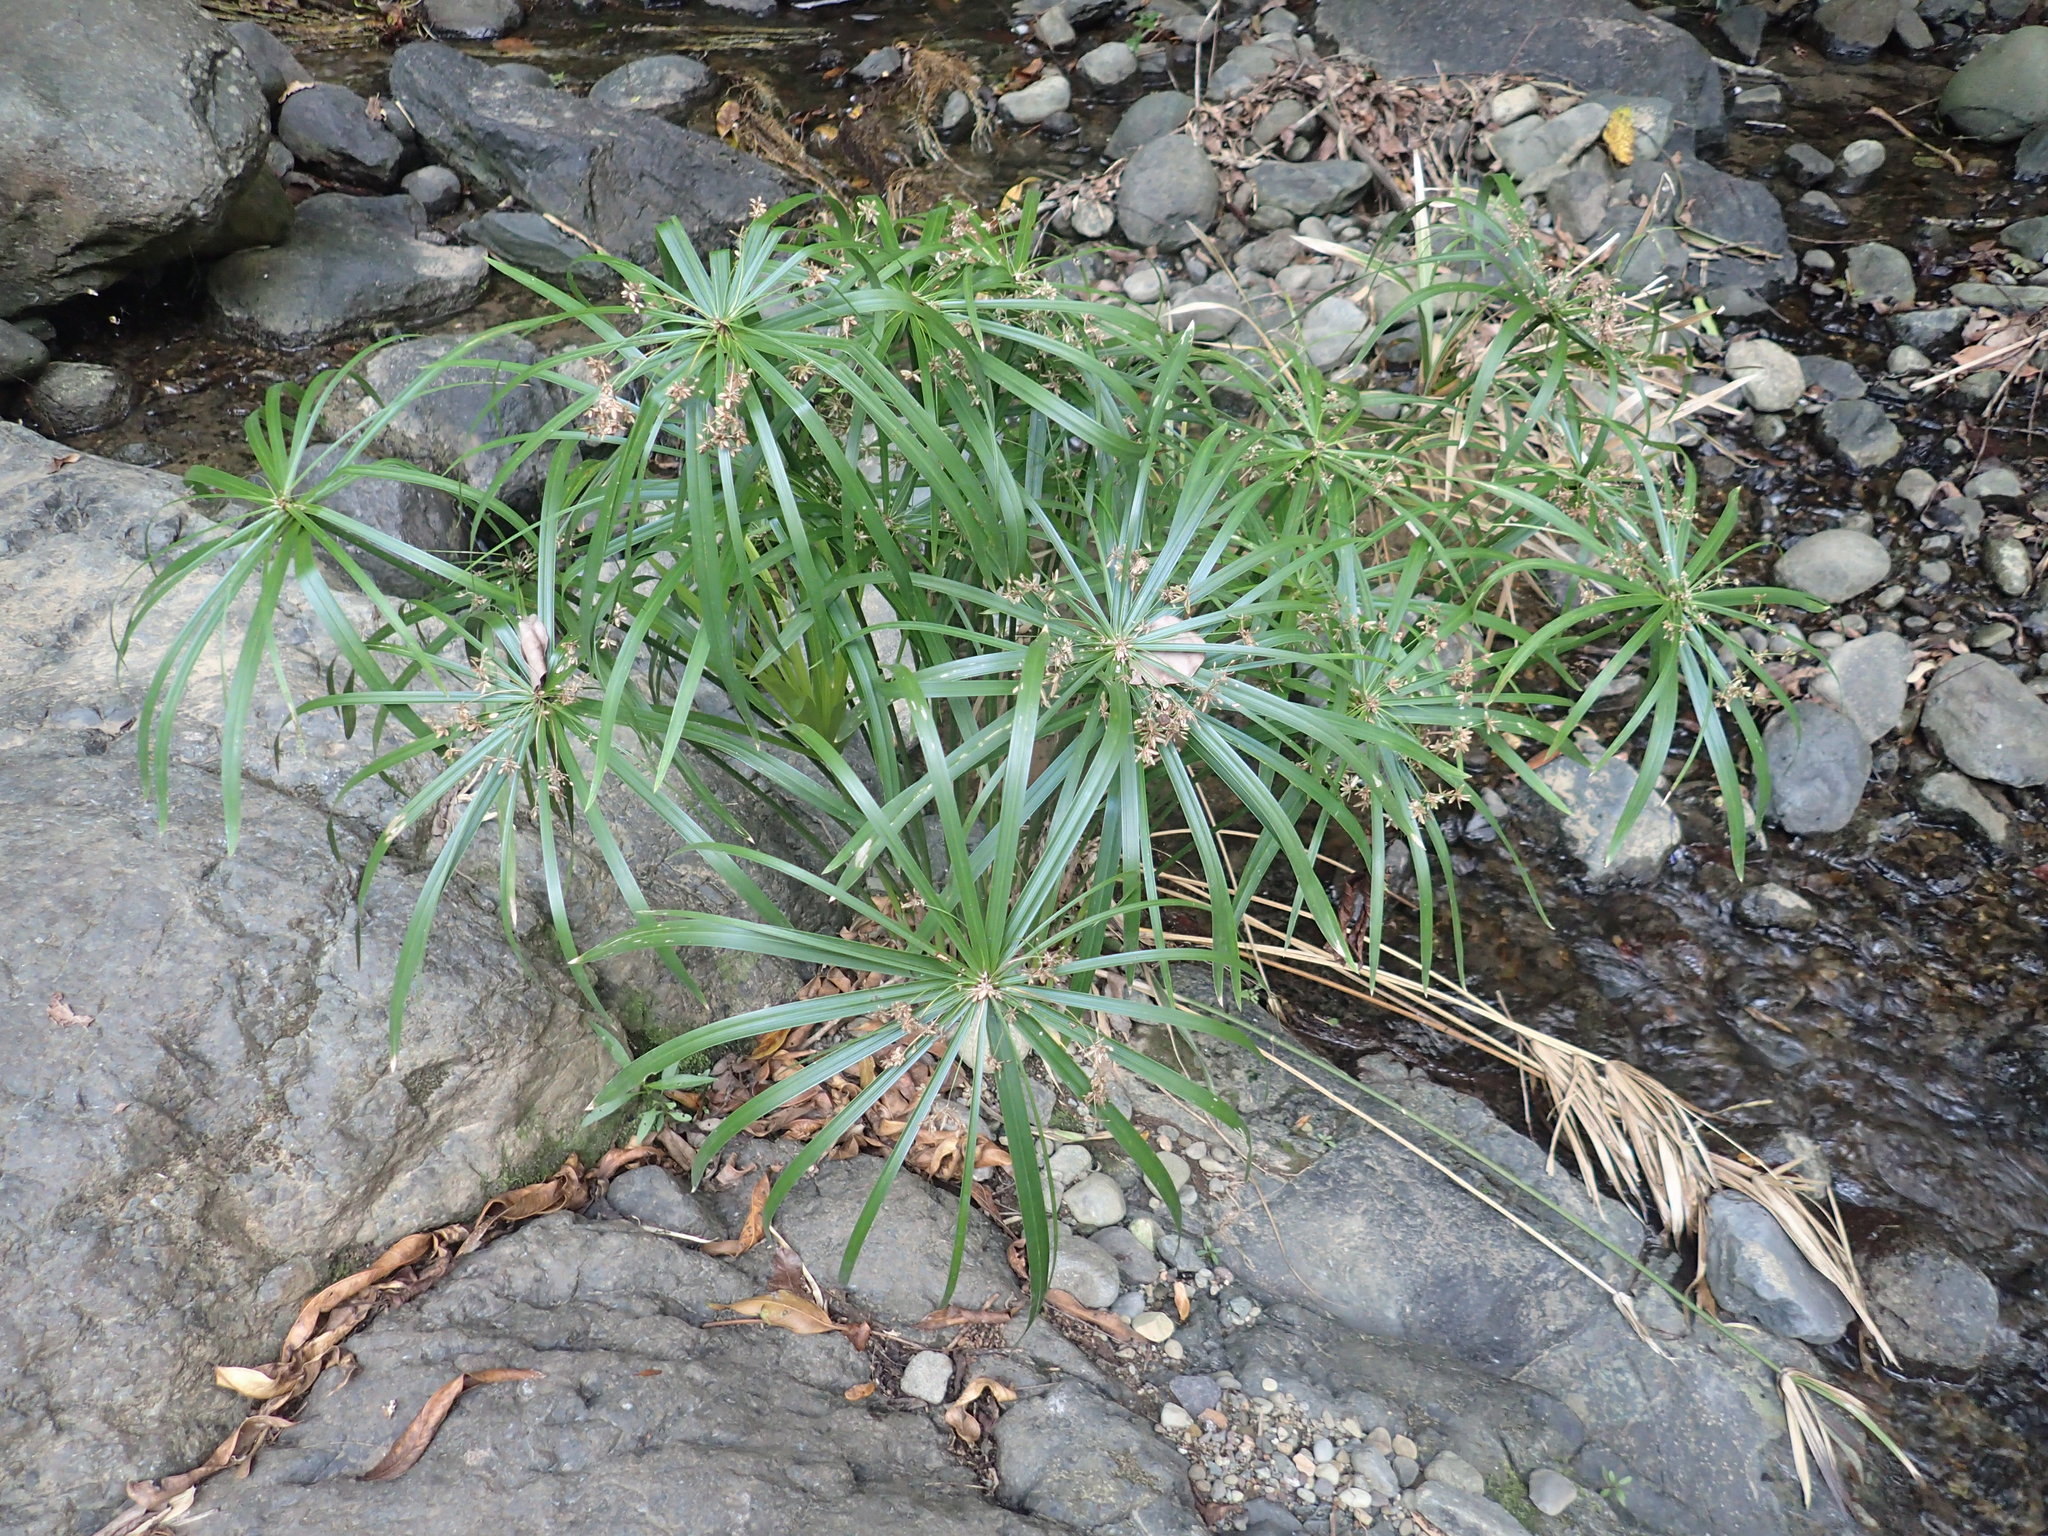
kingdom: Plantae
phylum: Tracheophyta
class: Liliopsida
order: Poales
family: Cyperaceae
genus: Cyperus
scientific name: Cyperus alternifolius
